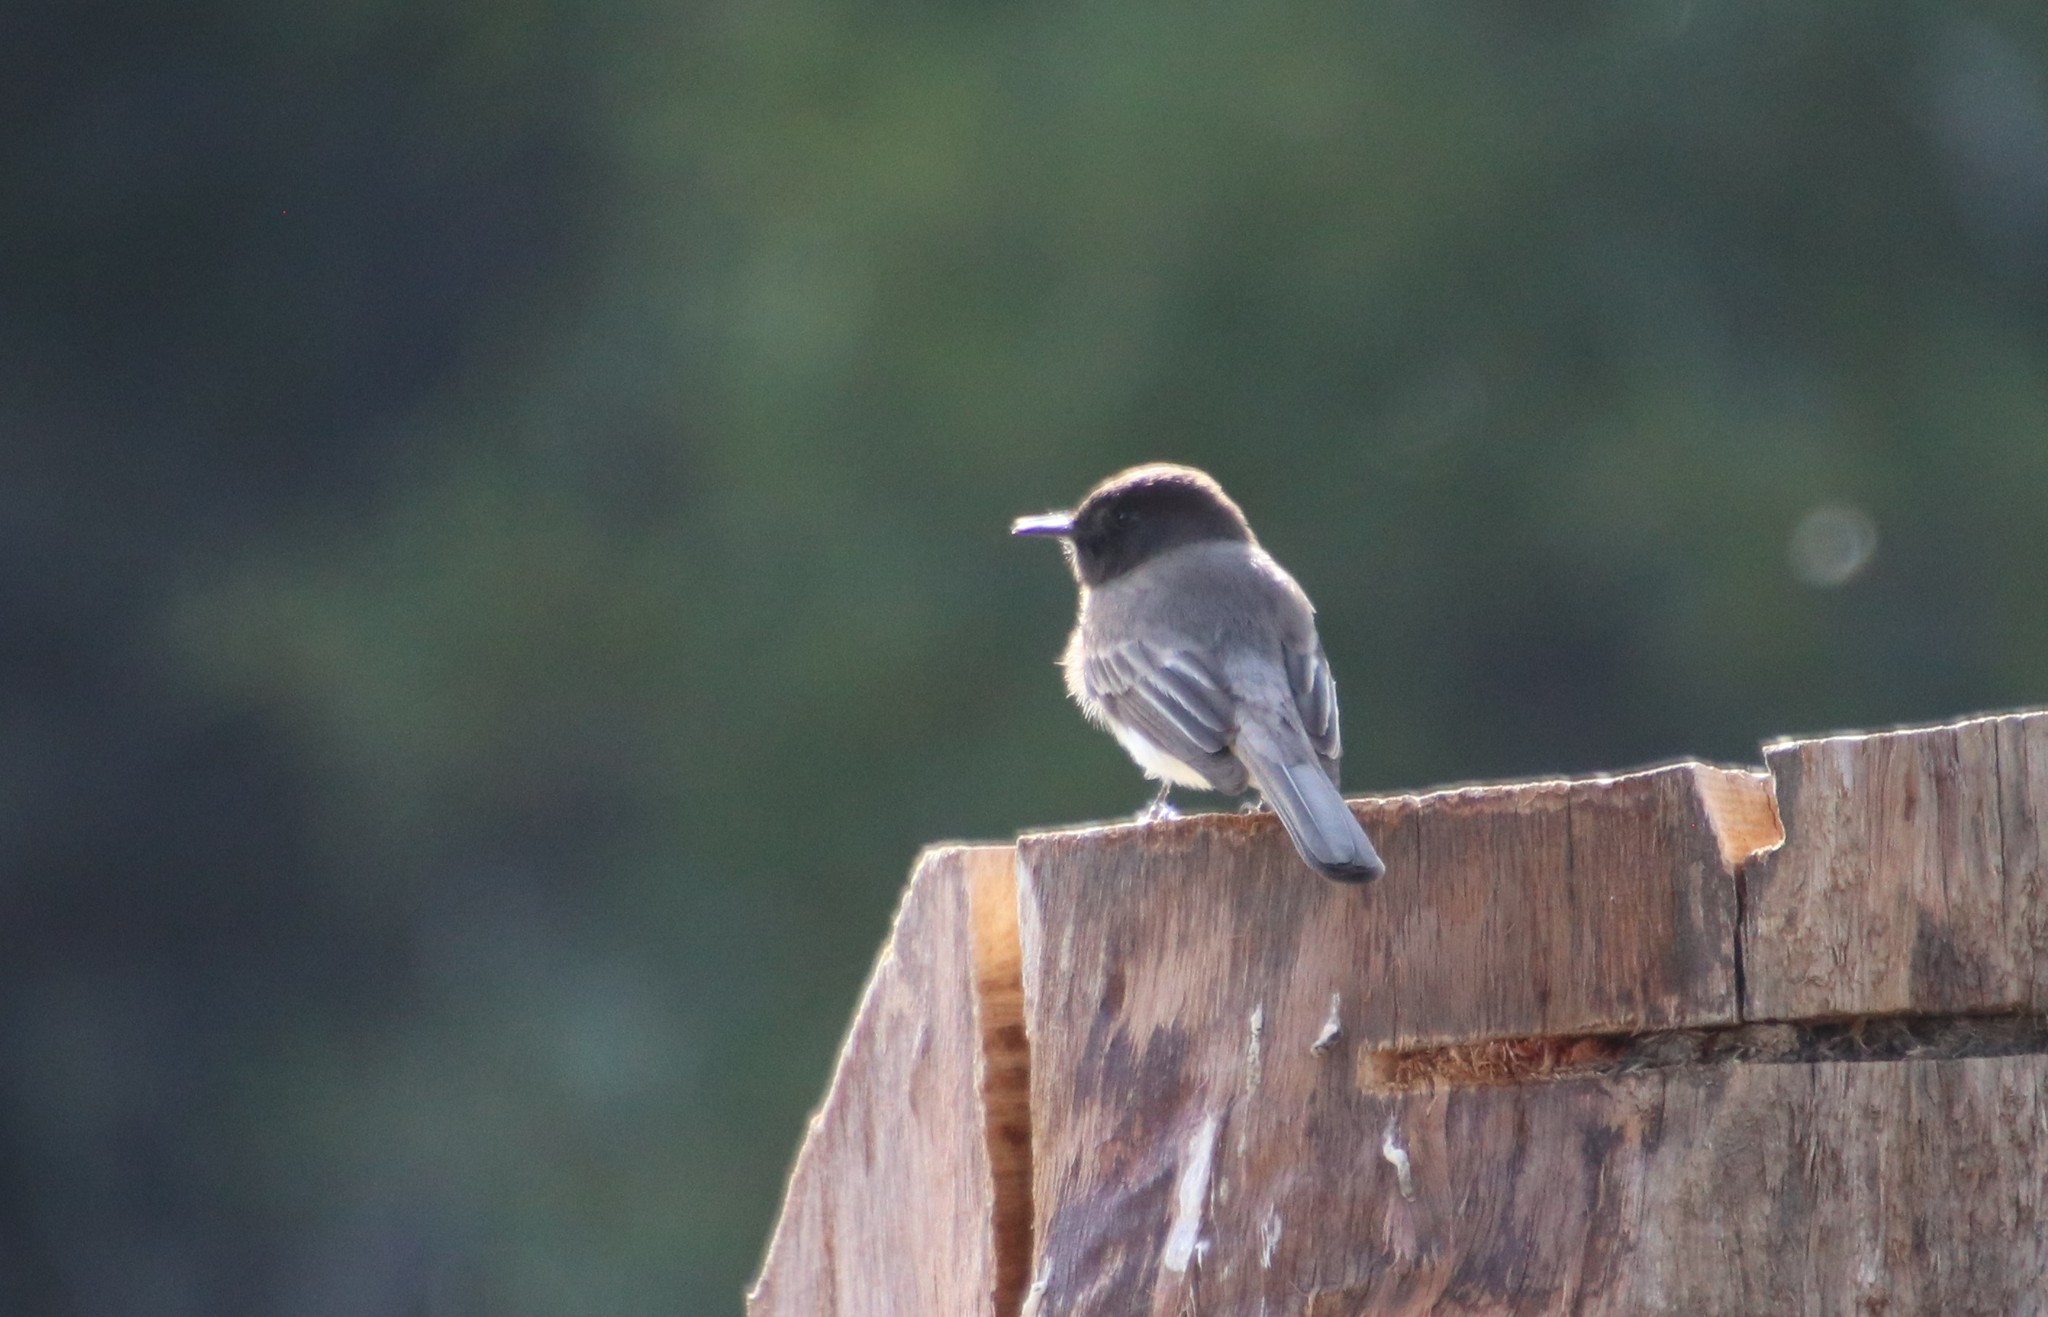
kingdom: Animalia
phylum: Chordata
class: Aves
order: Passeriformes
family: Tyrannidae
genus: Sayornis
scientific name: Sayornis nigricans
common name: Black phoebe
